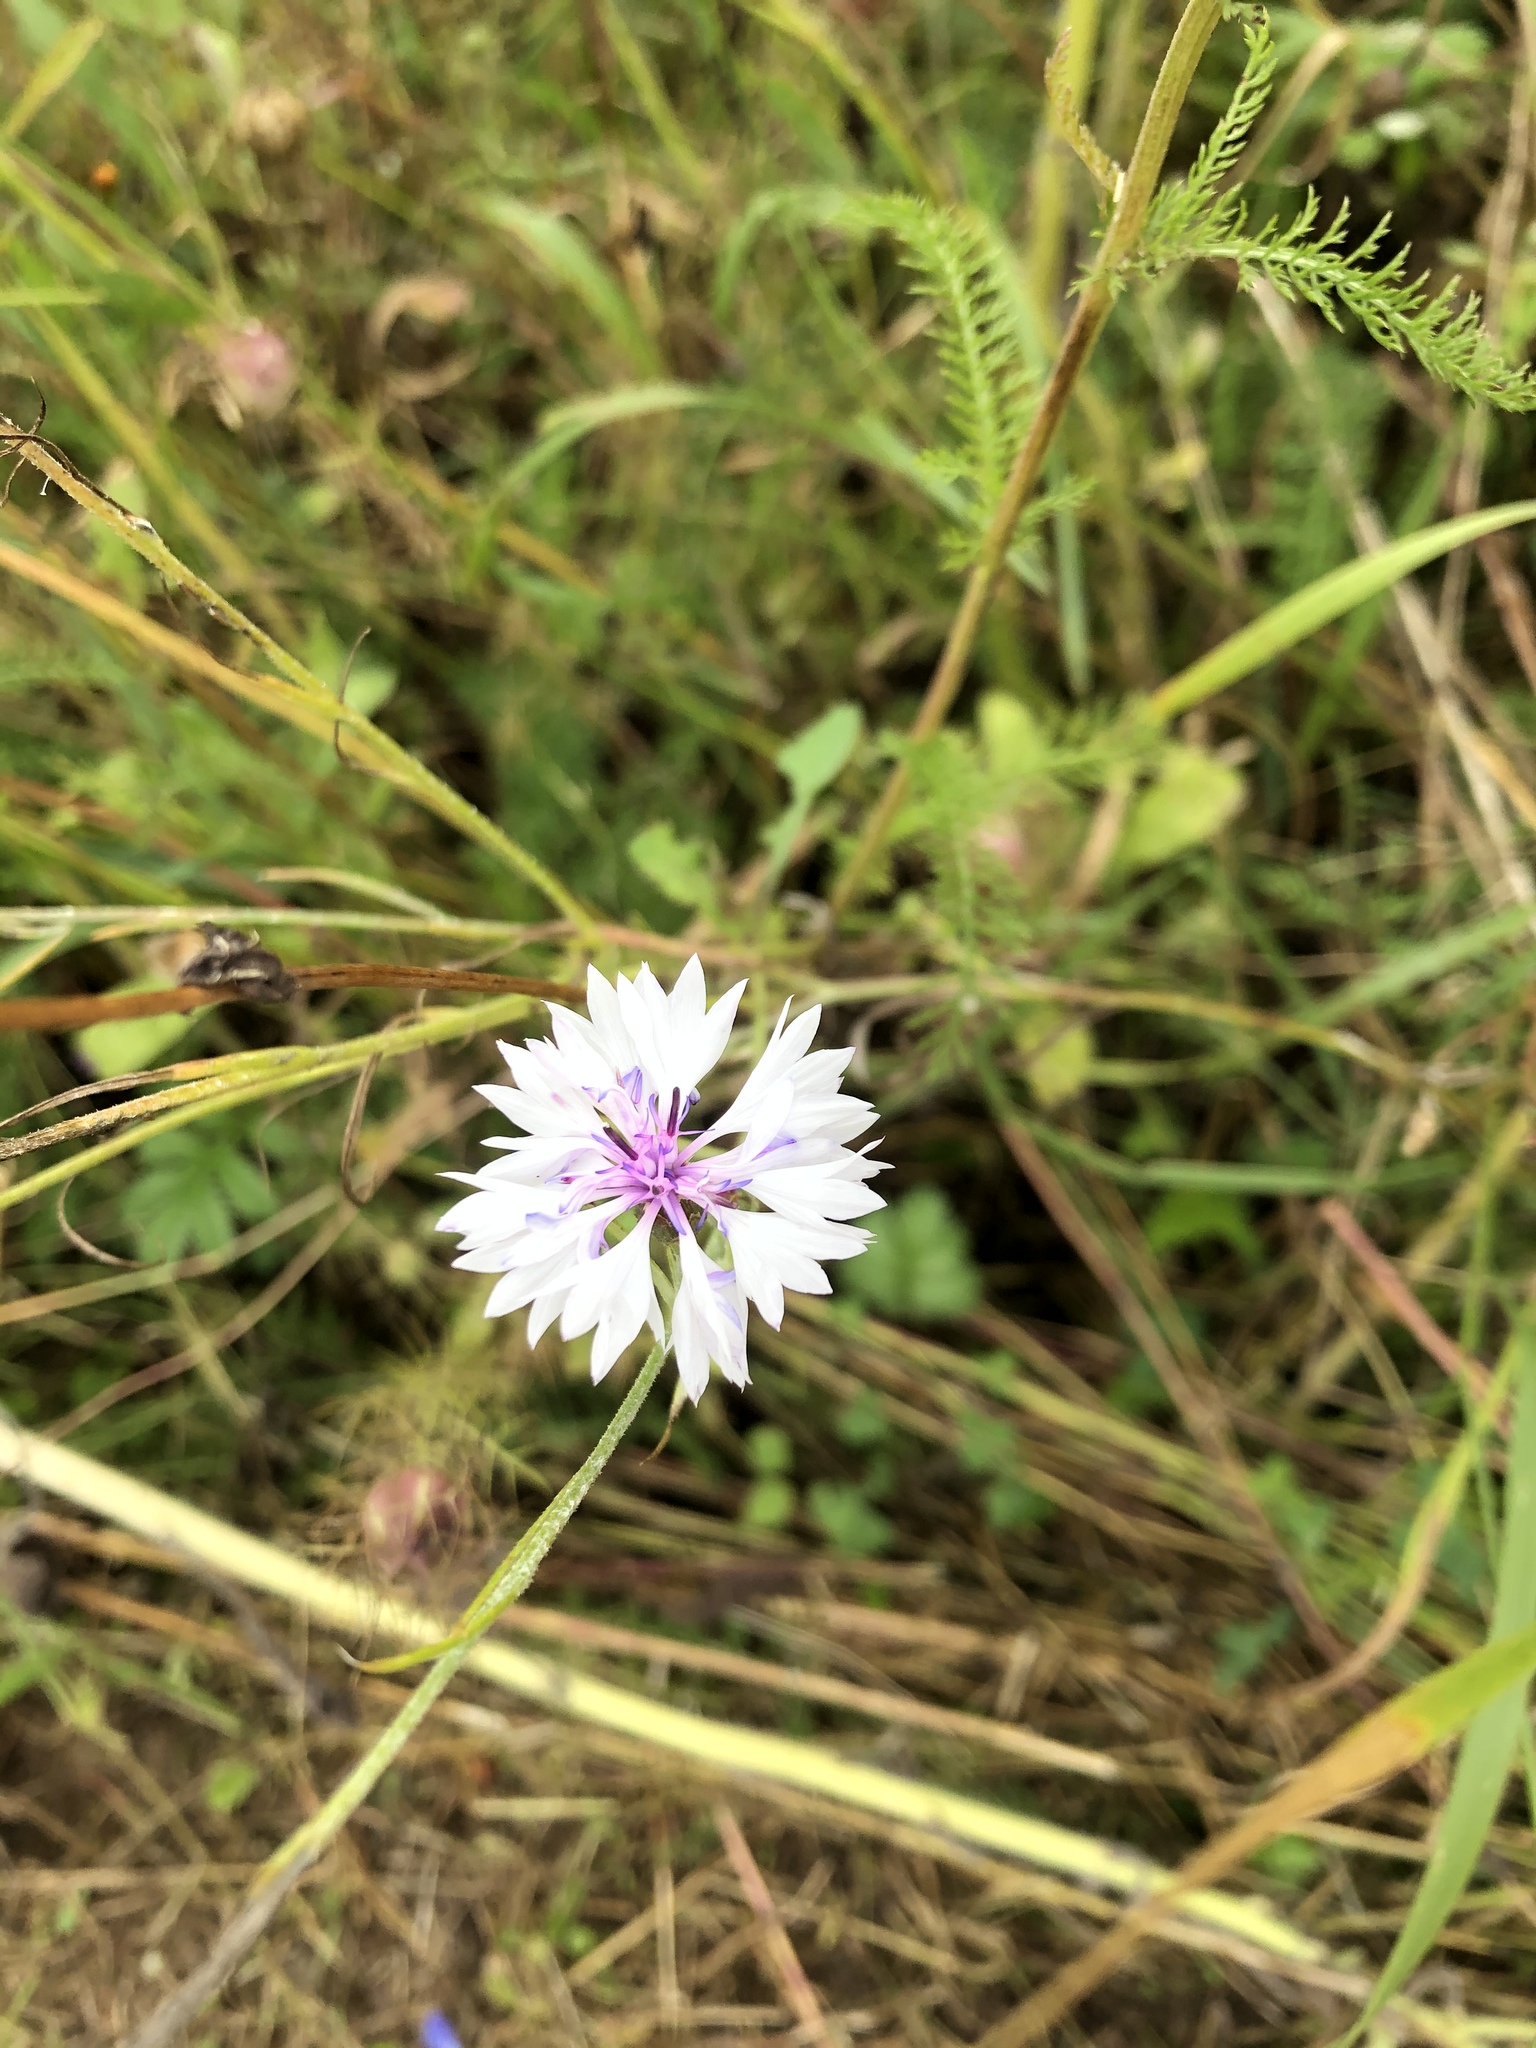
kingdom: Plantae
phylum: Tracheophyta
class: Magnoliopsida
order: Asterales
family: Asteraceae
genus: Centaurea
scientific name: Centaurea cyanus
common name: Cornflower
